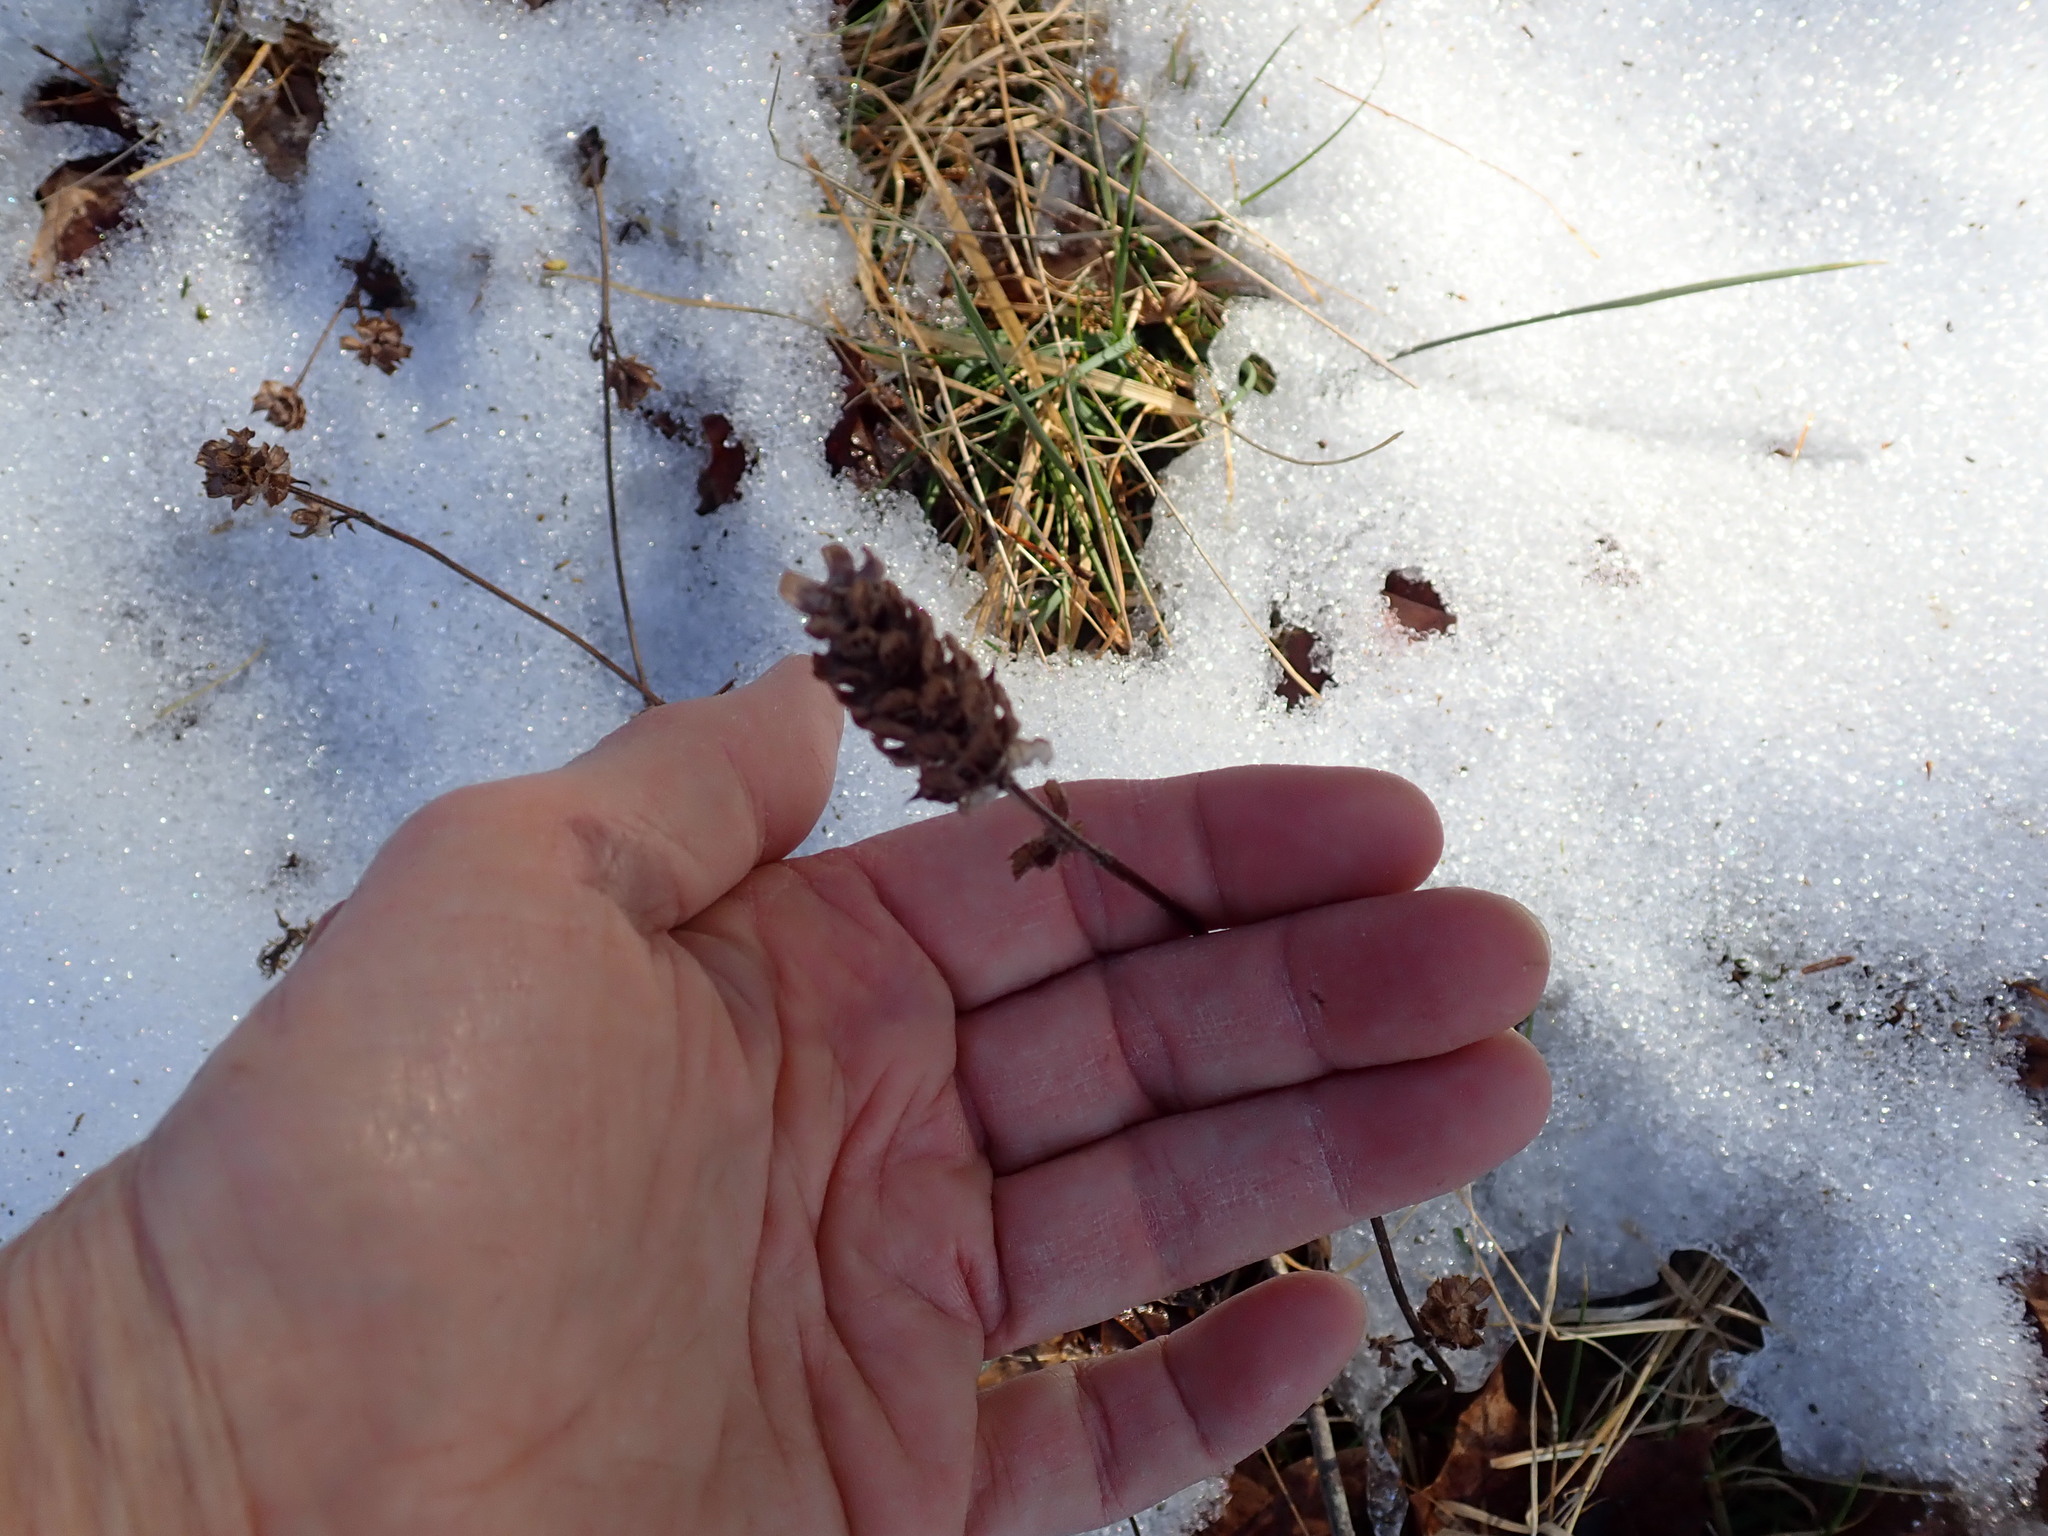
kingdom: Plantae
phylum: Tracheophyta
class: Magnoliopsida
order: Lamiales
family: Lamiaceae
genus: Prunella
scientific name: Prunella vulgaris
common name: Heal-all
